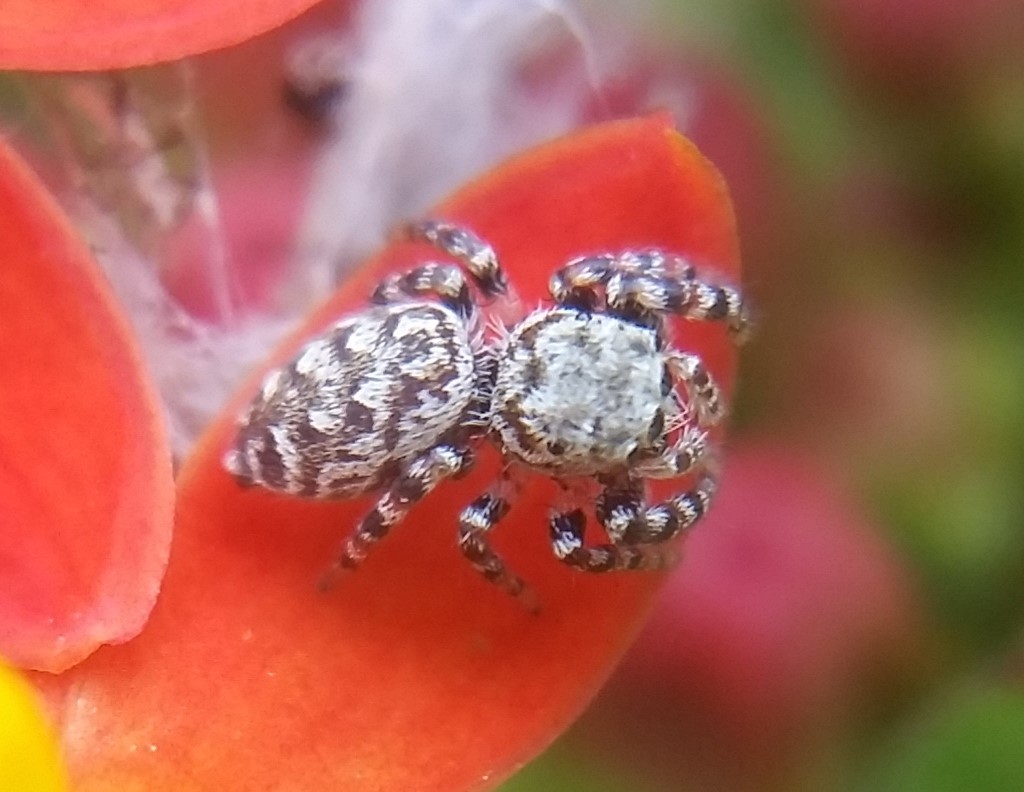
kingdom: Animalia
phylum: Arthropoda
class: Arachnida
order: Araneae
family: Salticidae
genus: Pelegrina
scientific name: Pelegrina galathea
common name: Jumping spiders
